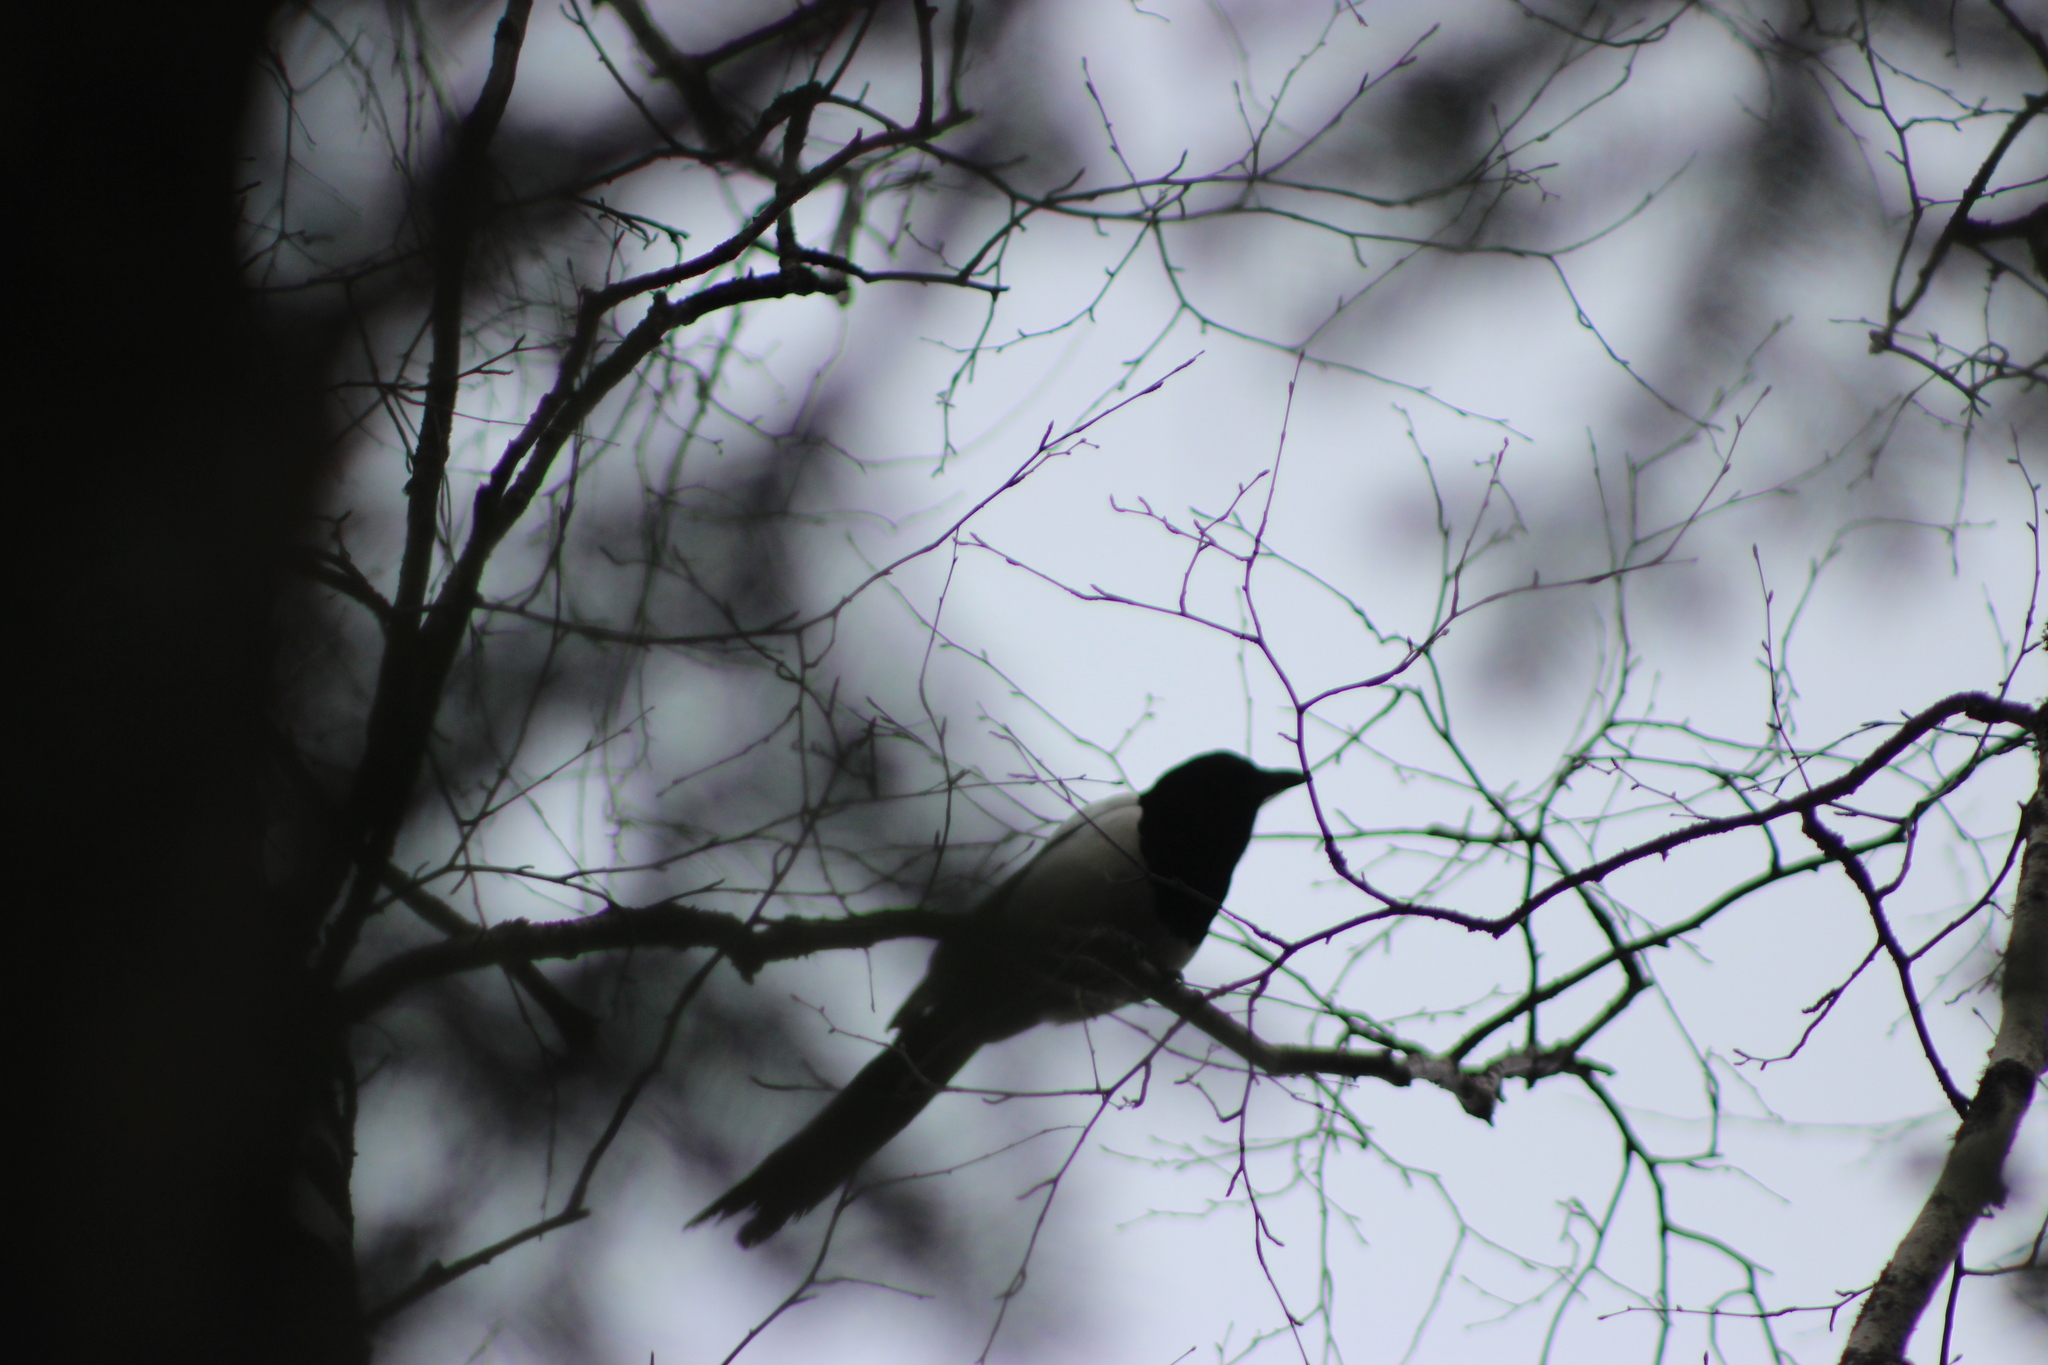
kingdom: Animalia
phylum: Chordata
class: Aves
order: Passeriformes
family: Corvidae
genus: Pica
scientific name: Pica pica
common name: Eurasian magpie
